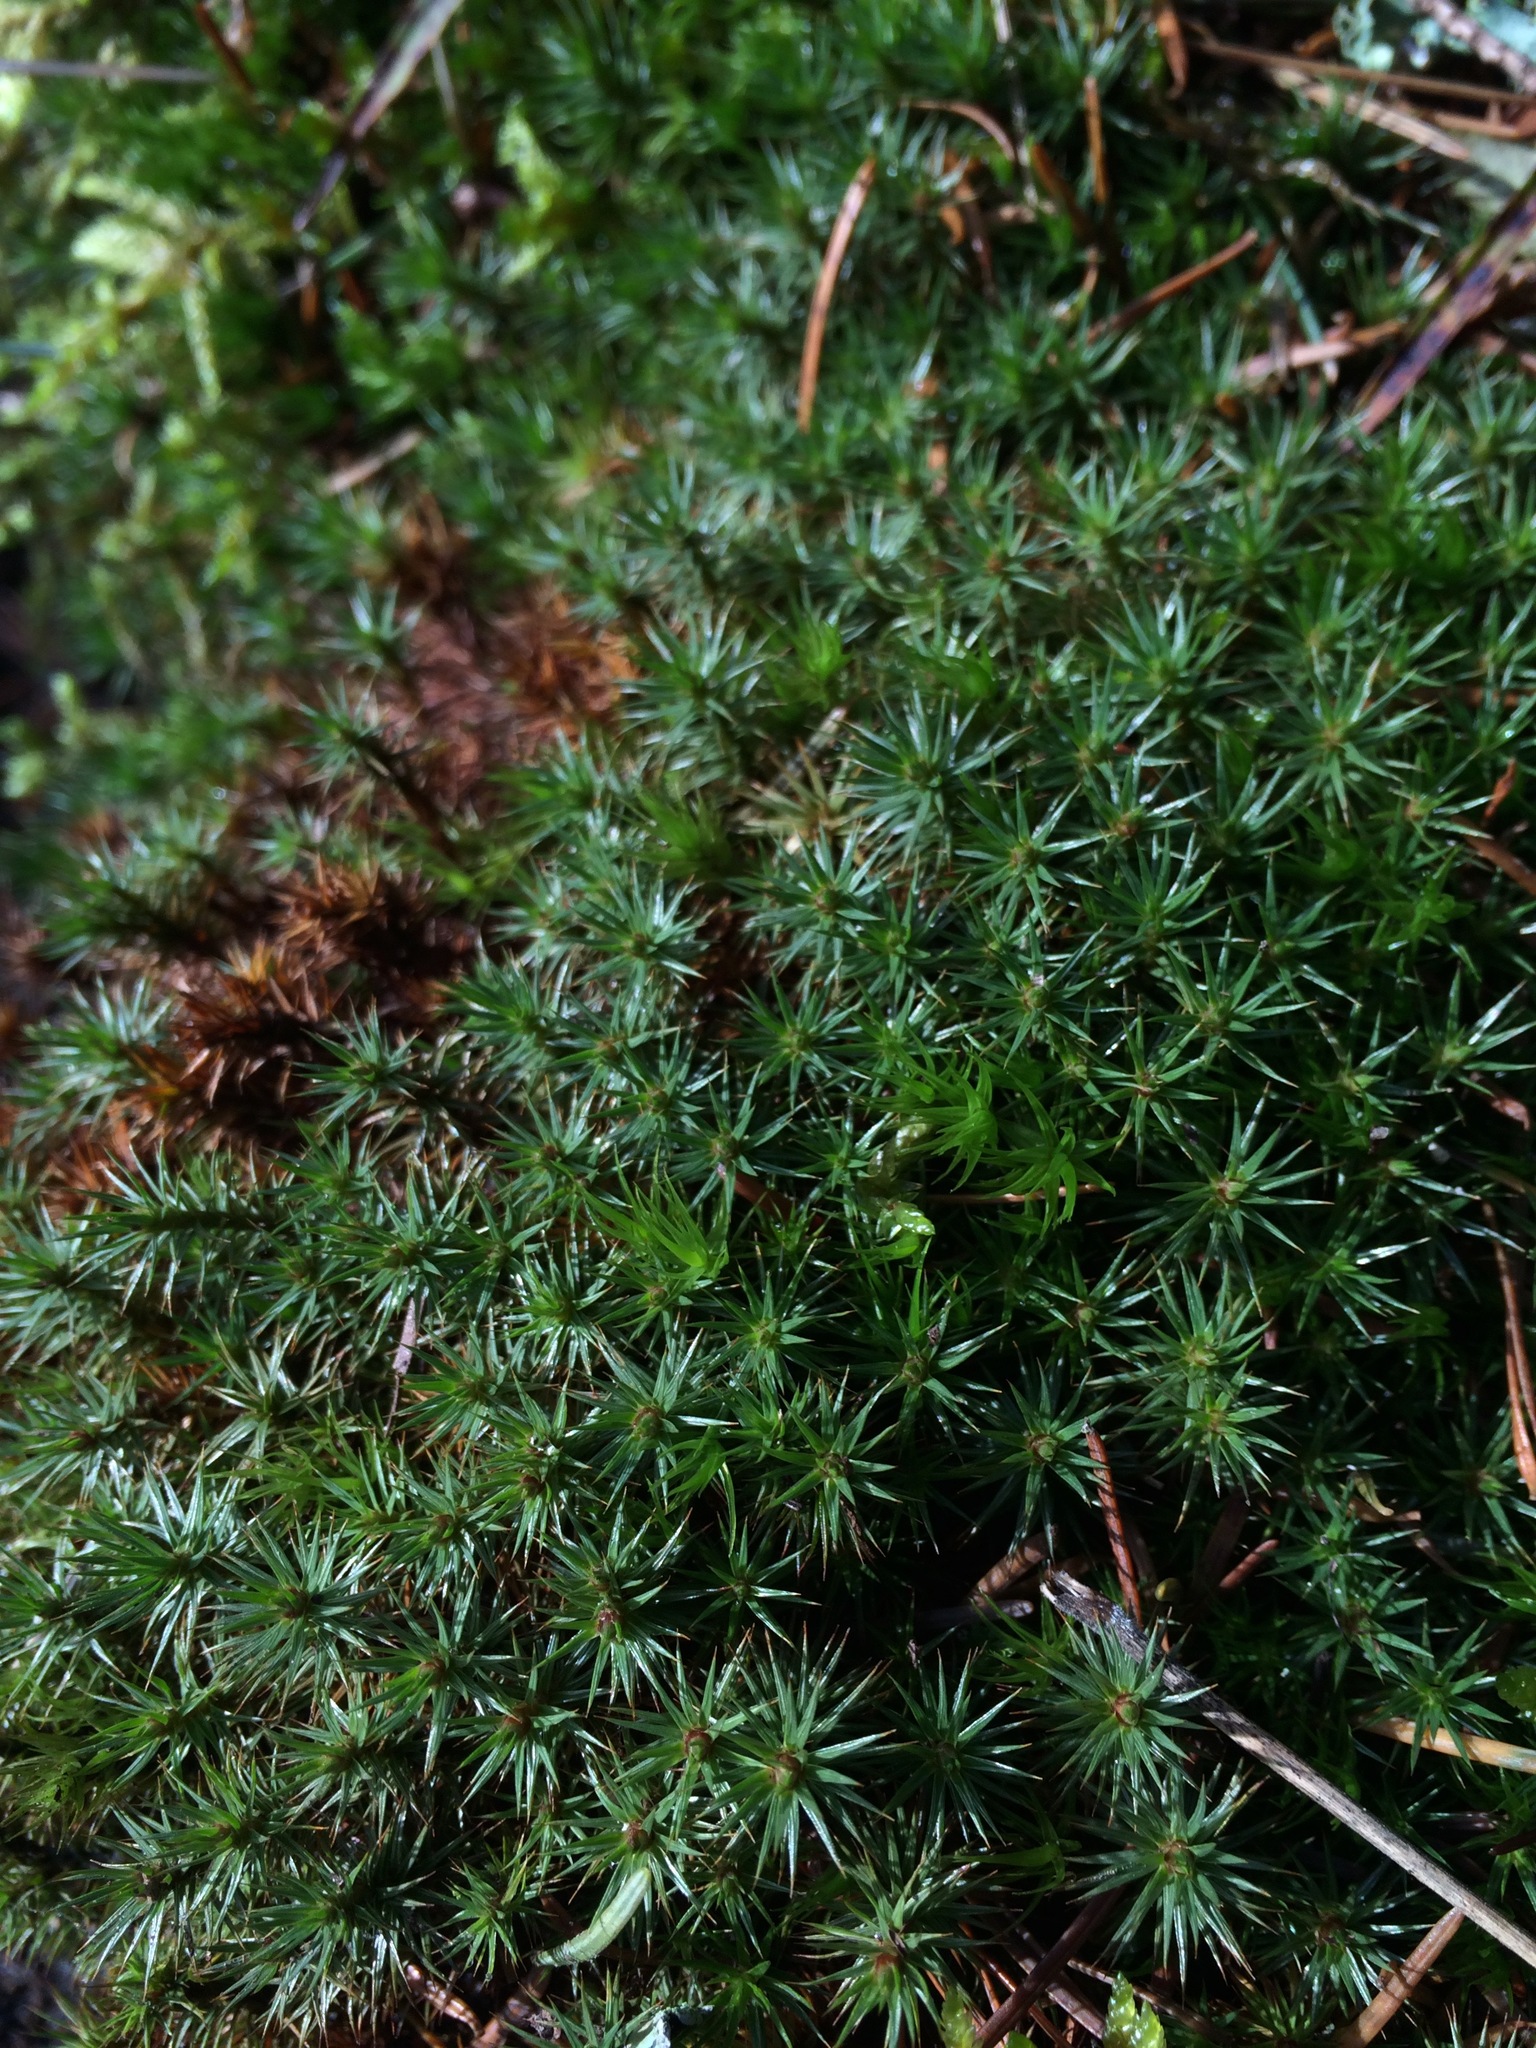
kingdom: Plantae
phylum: Bryophyta
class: Polytrichopsida
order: Polytrichales
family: Polytrichaceae
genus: Polytrichum
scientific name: Polytrichum juniperinum
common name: Juniper haircap moss
